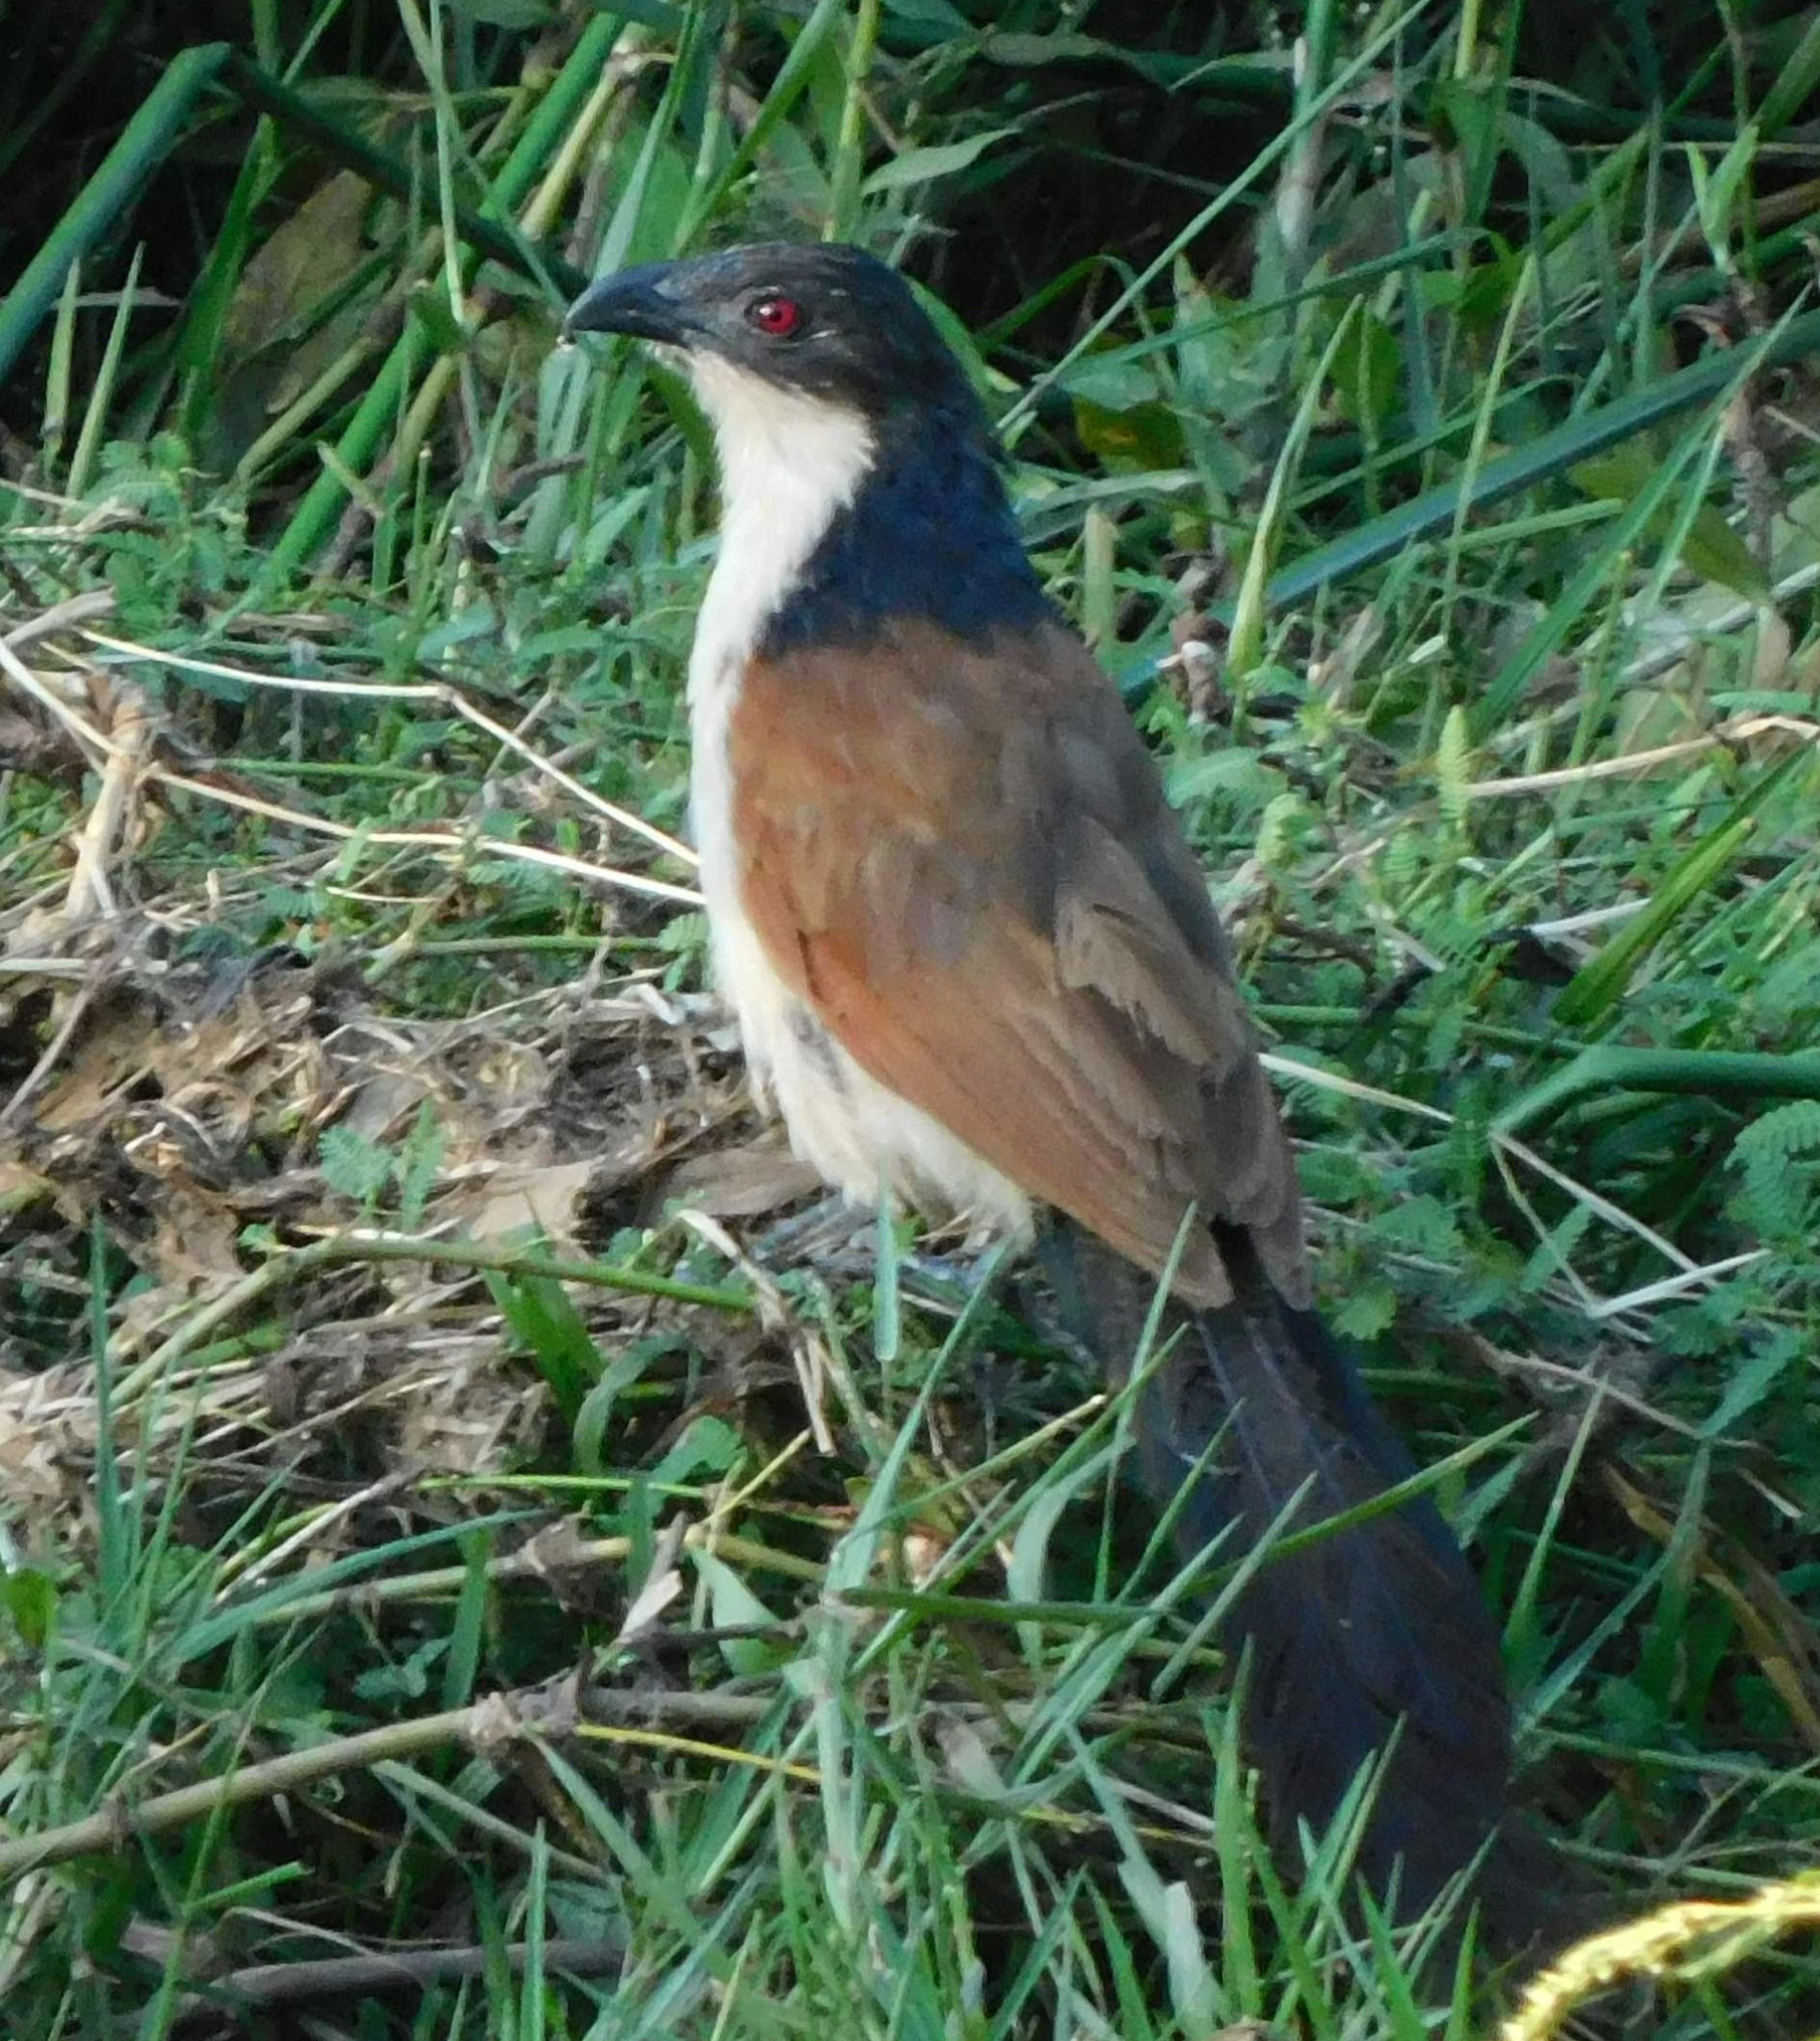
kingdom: Animalia
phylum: Chordata
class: Aves
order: Cuculiformes
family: Cuculidae
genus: Centropus
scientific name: Centropus superciliosus
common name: White-browed coucal
